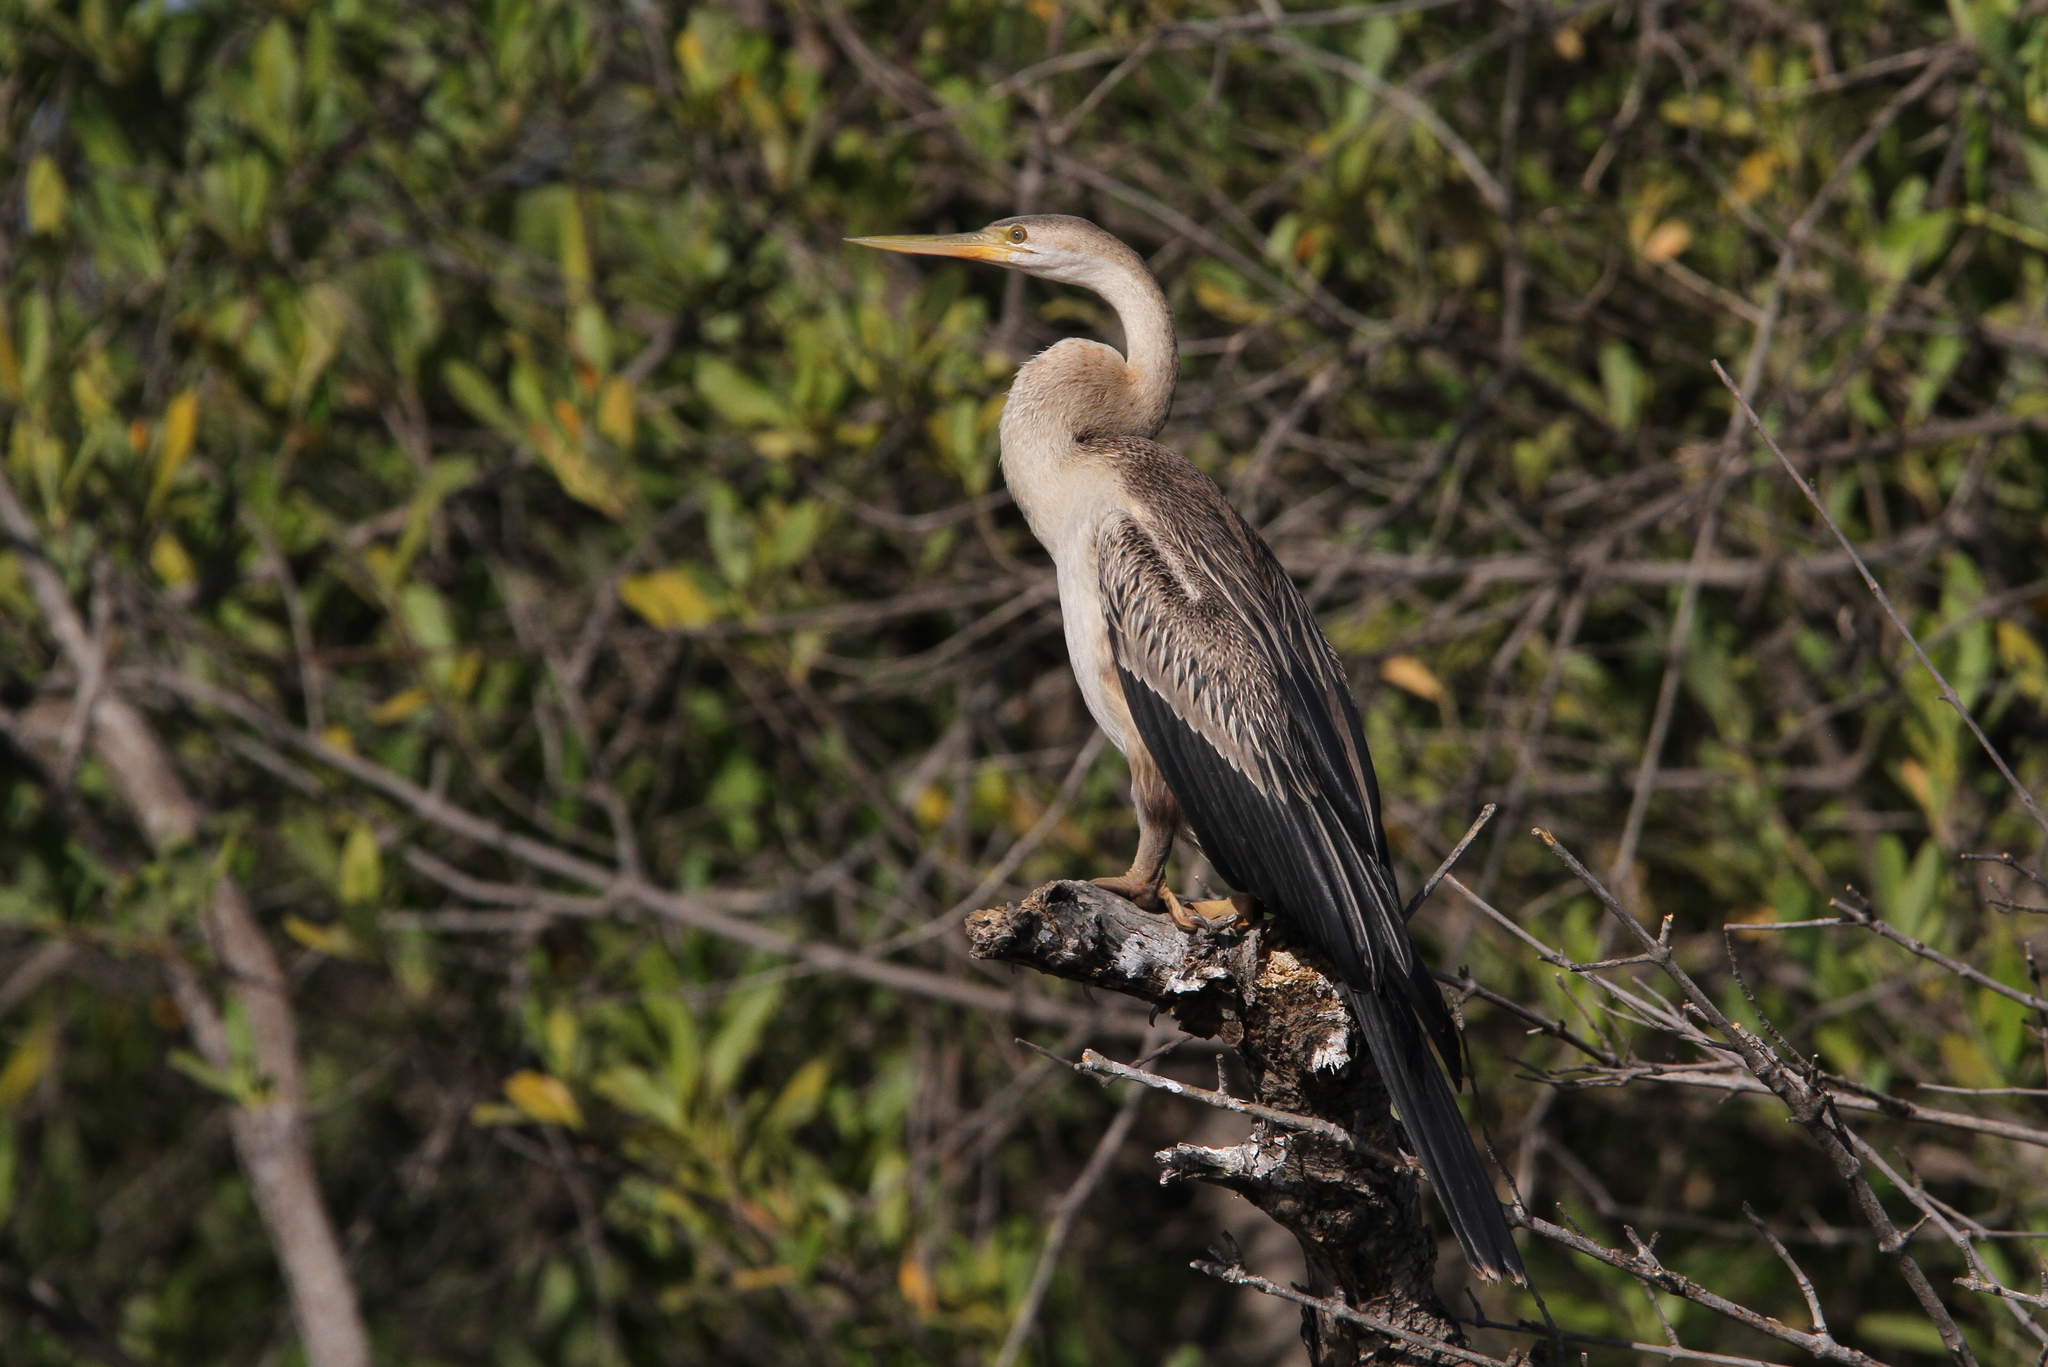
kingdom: Animalia
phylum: Chordata
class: Aves
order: Suliformes
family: Anhingidae
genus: Anhinga
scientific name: Anhinga rufa
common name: African darter
